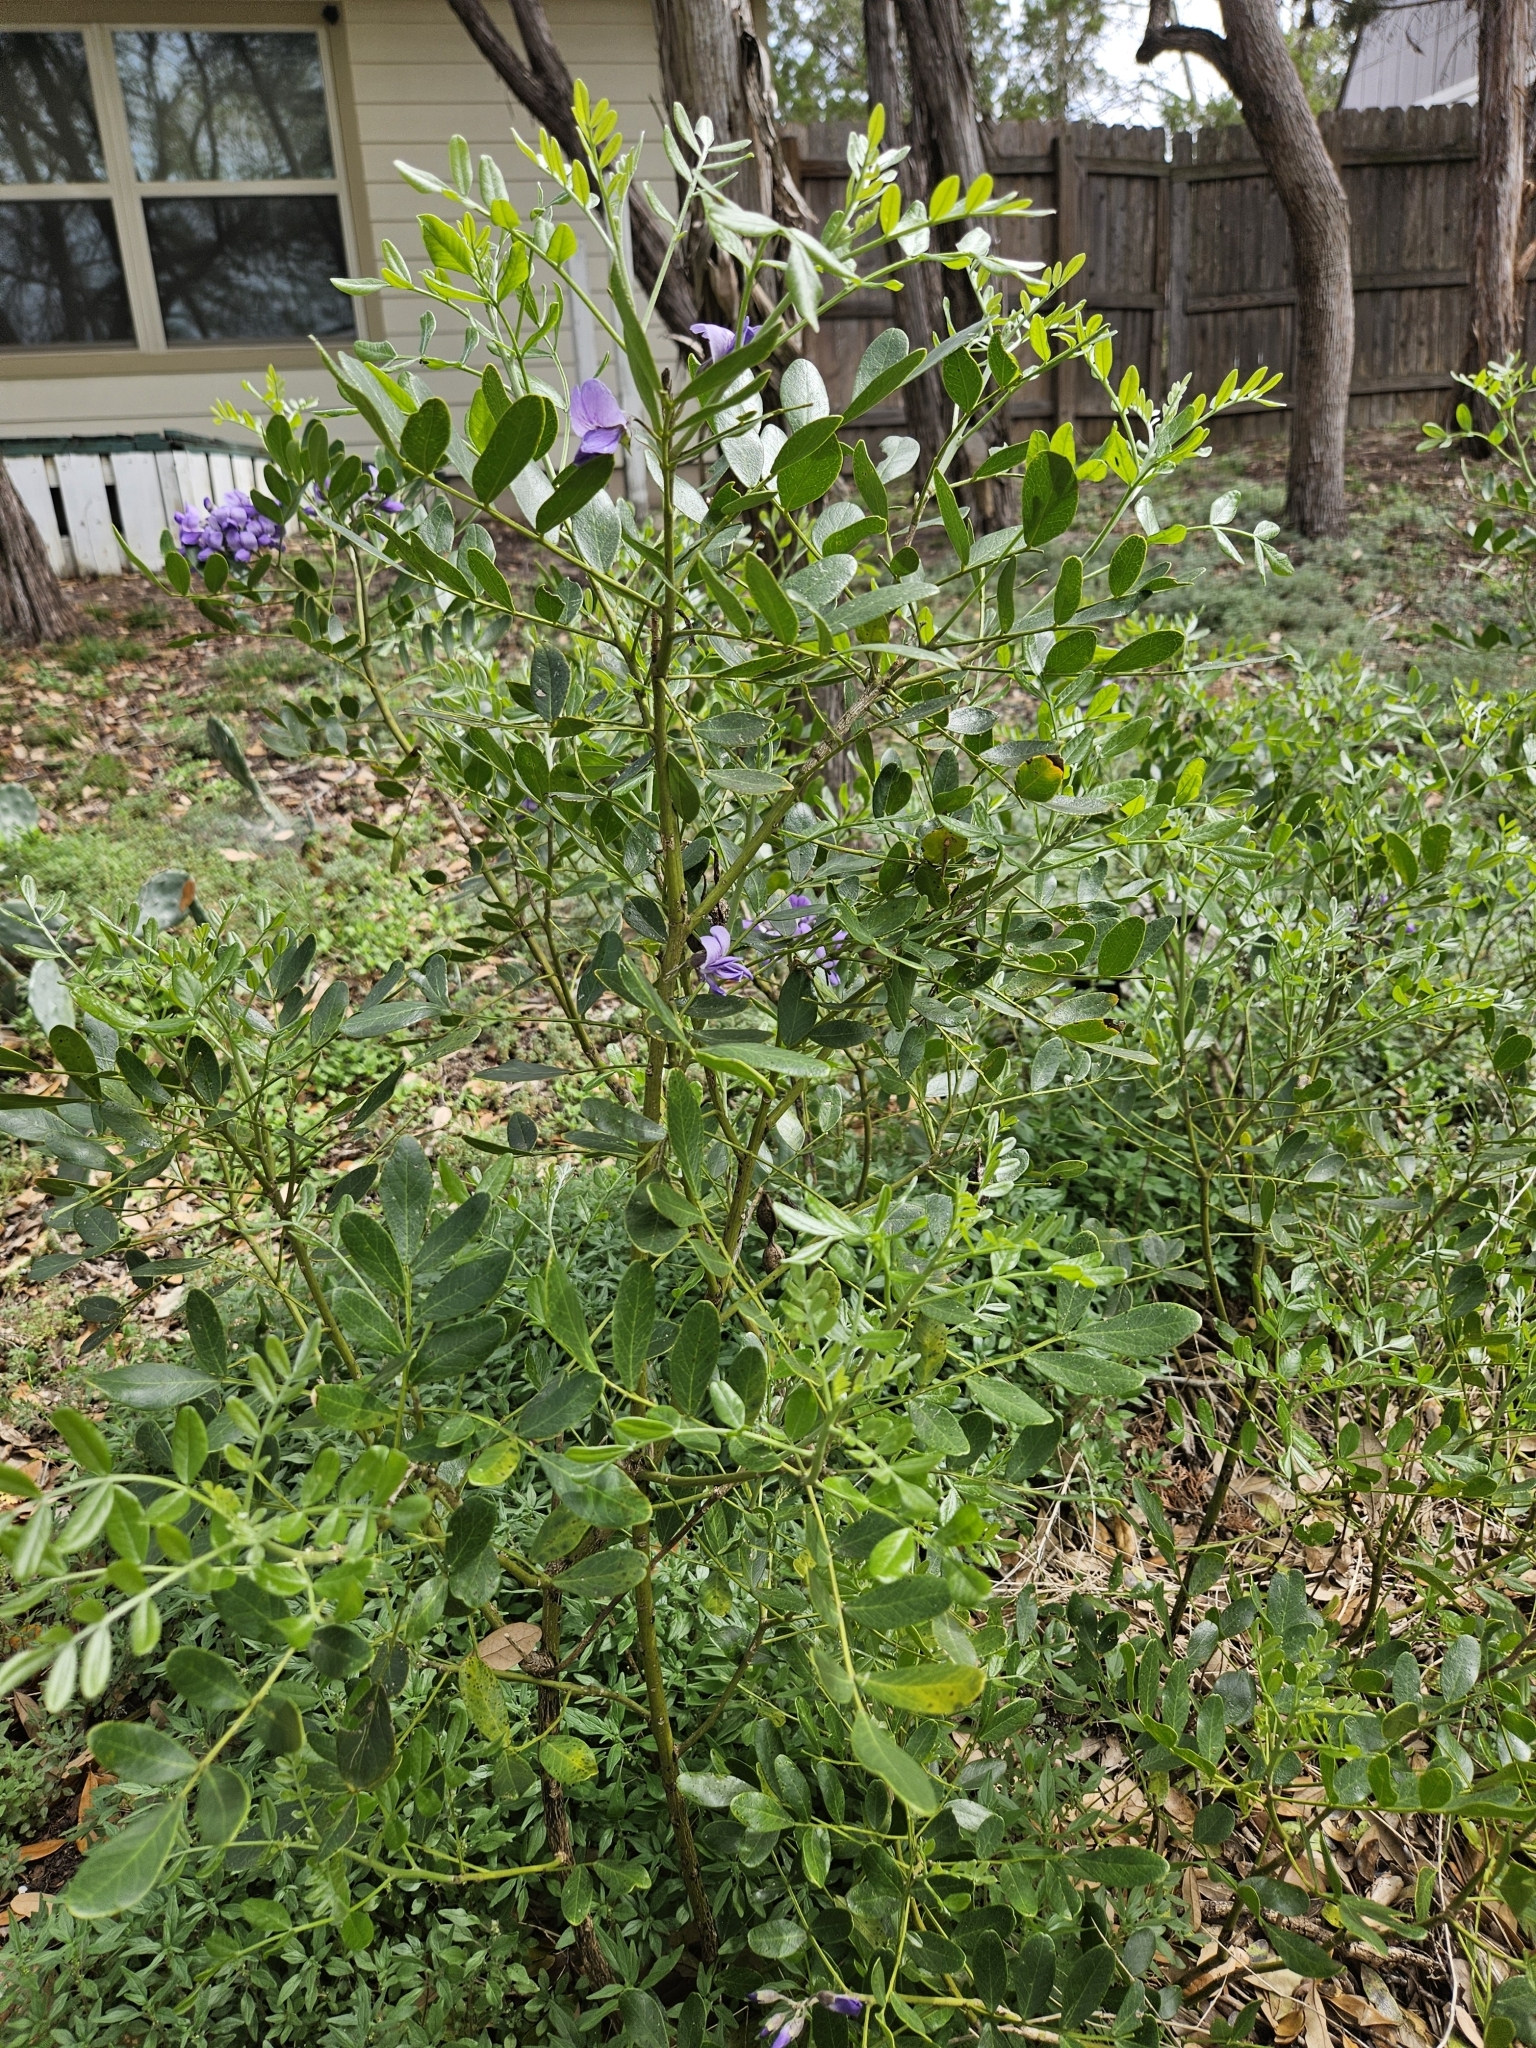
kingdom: Plantae
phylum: Tracheophyta
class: Magnoliopsida
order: Fabales
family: Fabaceae
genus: Dermatophyllum
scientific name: Dermatophyllum secundiflorum
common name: Texas-mountain-laurel
